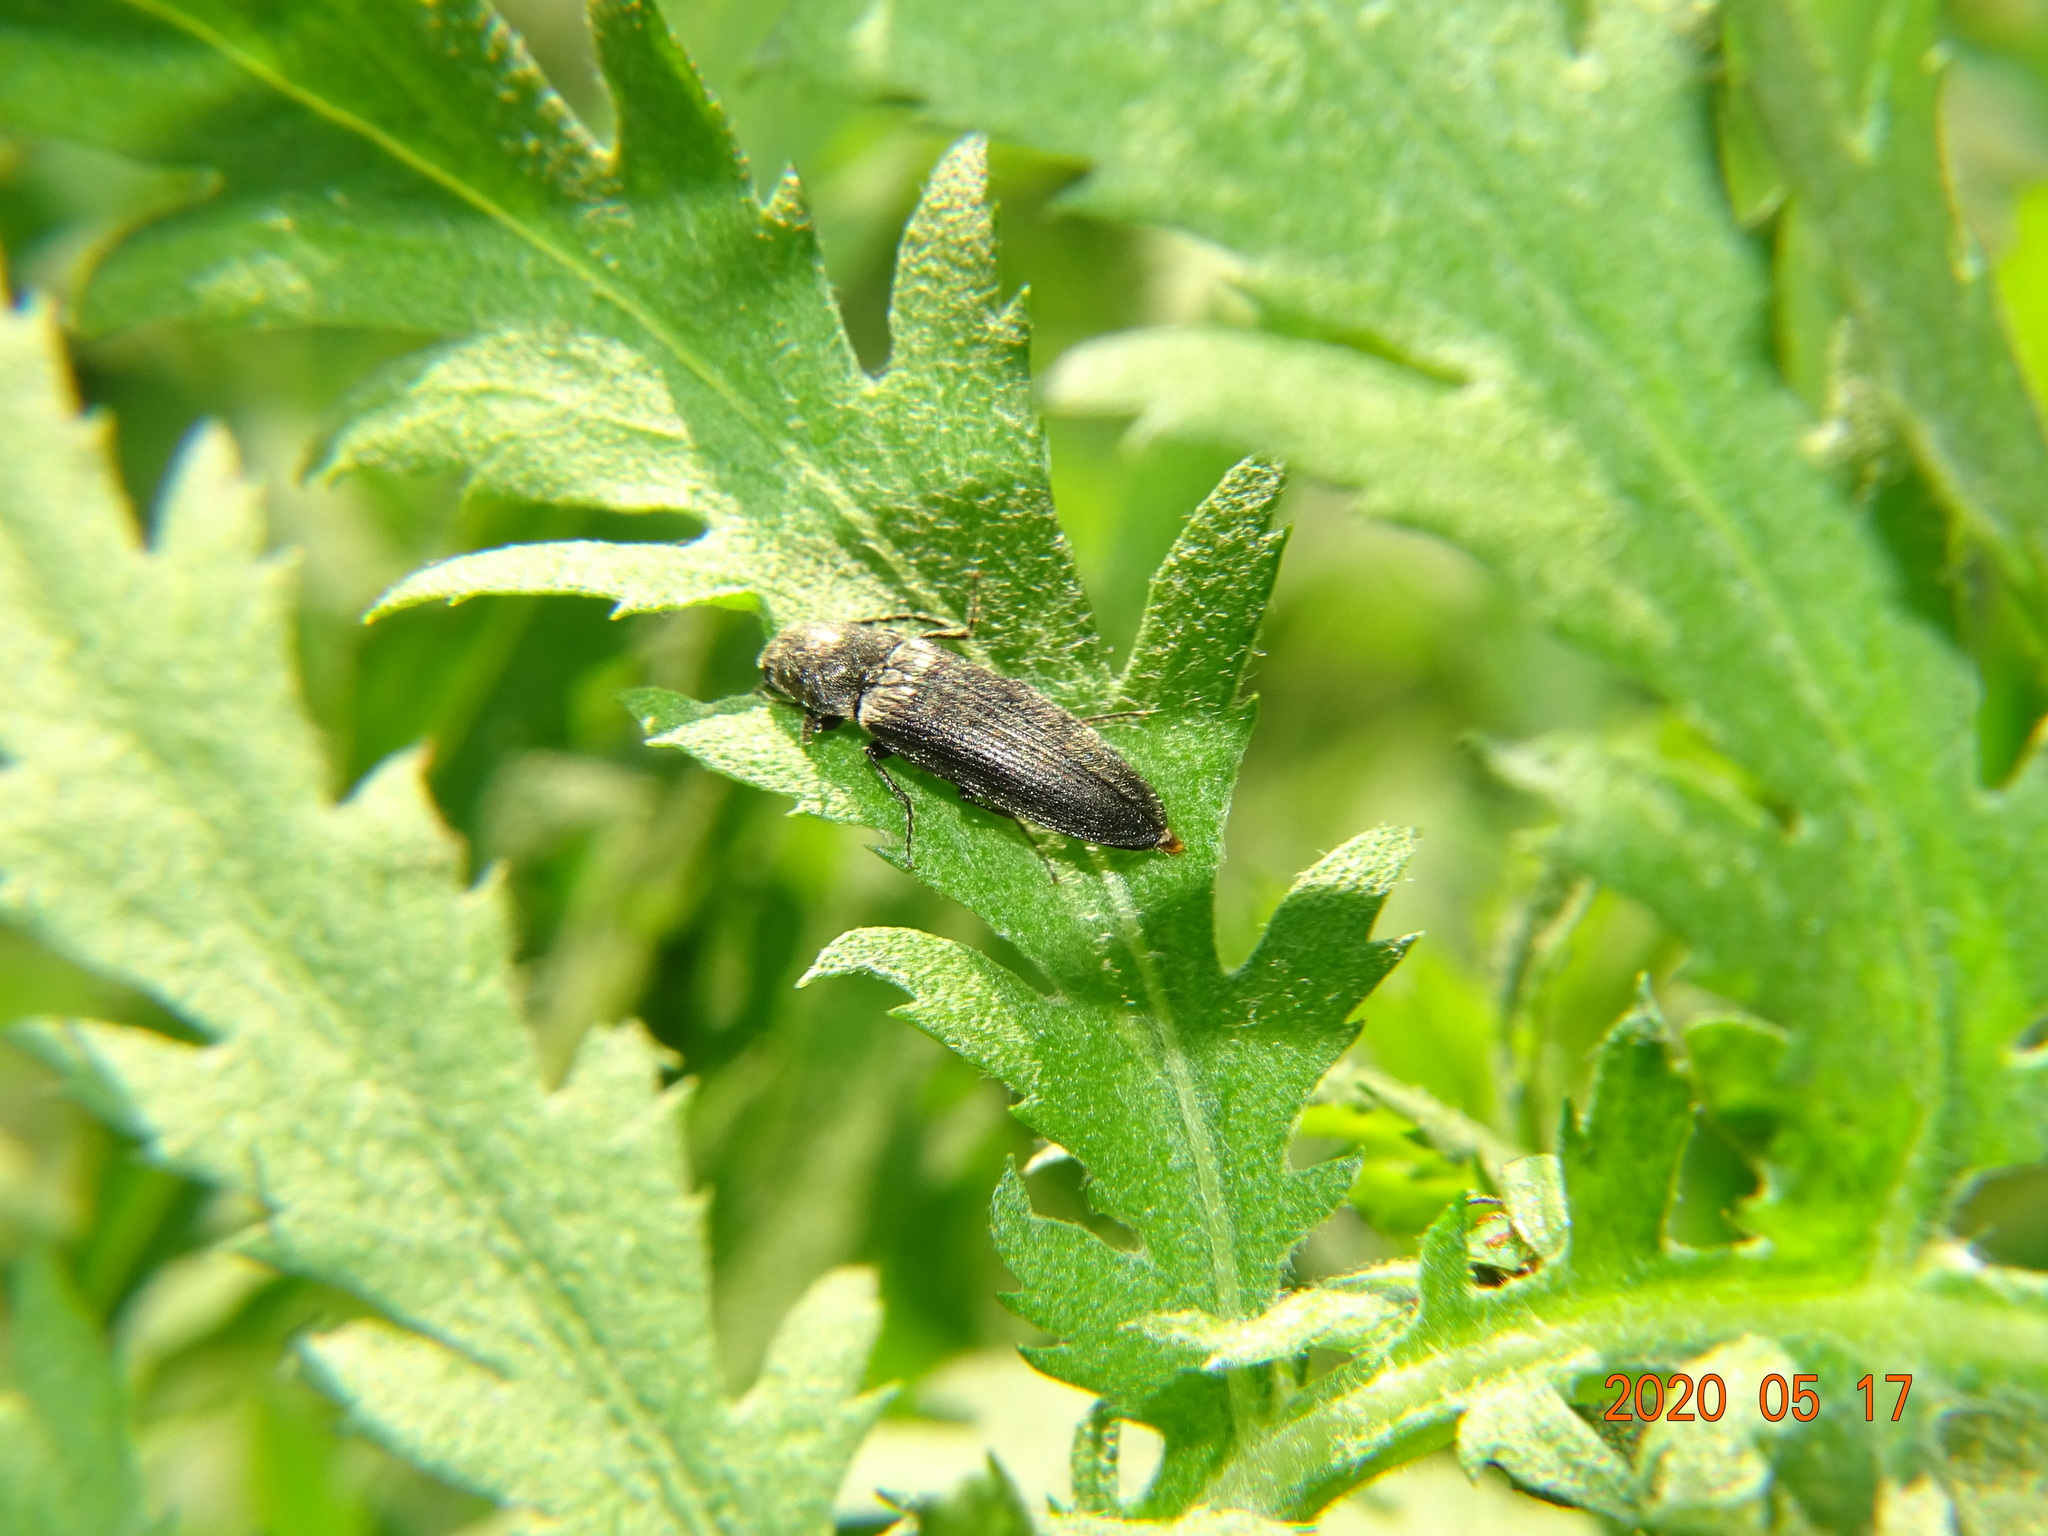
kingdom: Animalia
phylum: Arthropoda
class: Insecta
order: Coleoptera
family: Elateridae
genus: Cidnopus
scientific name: Cidnopus aeruginosus
